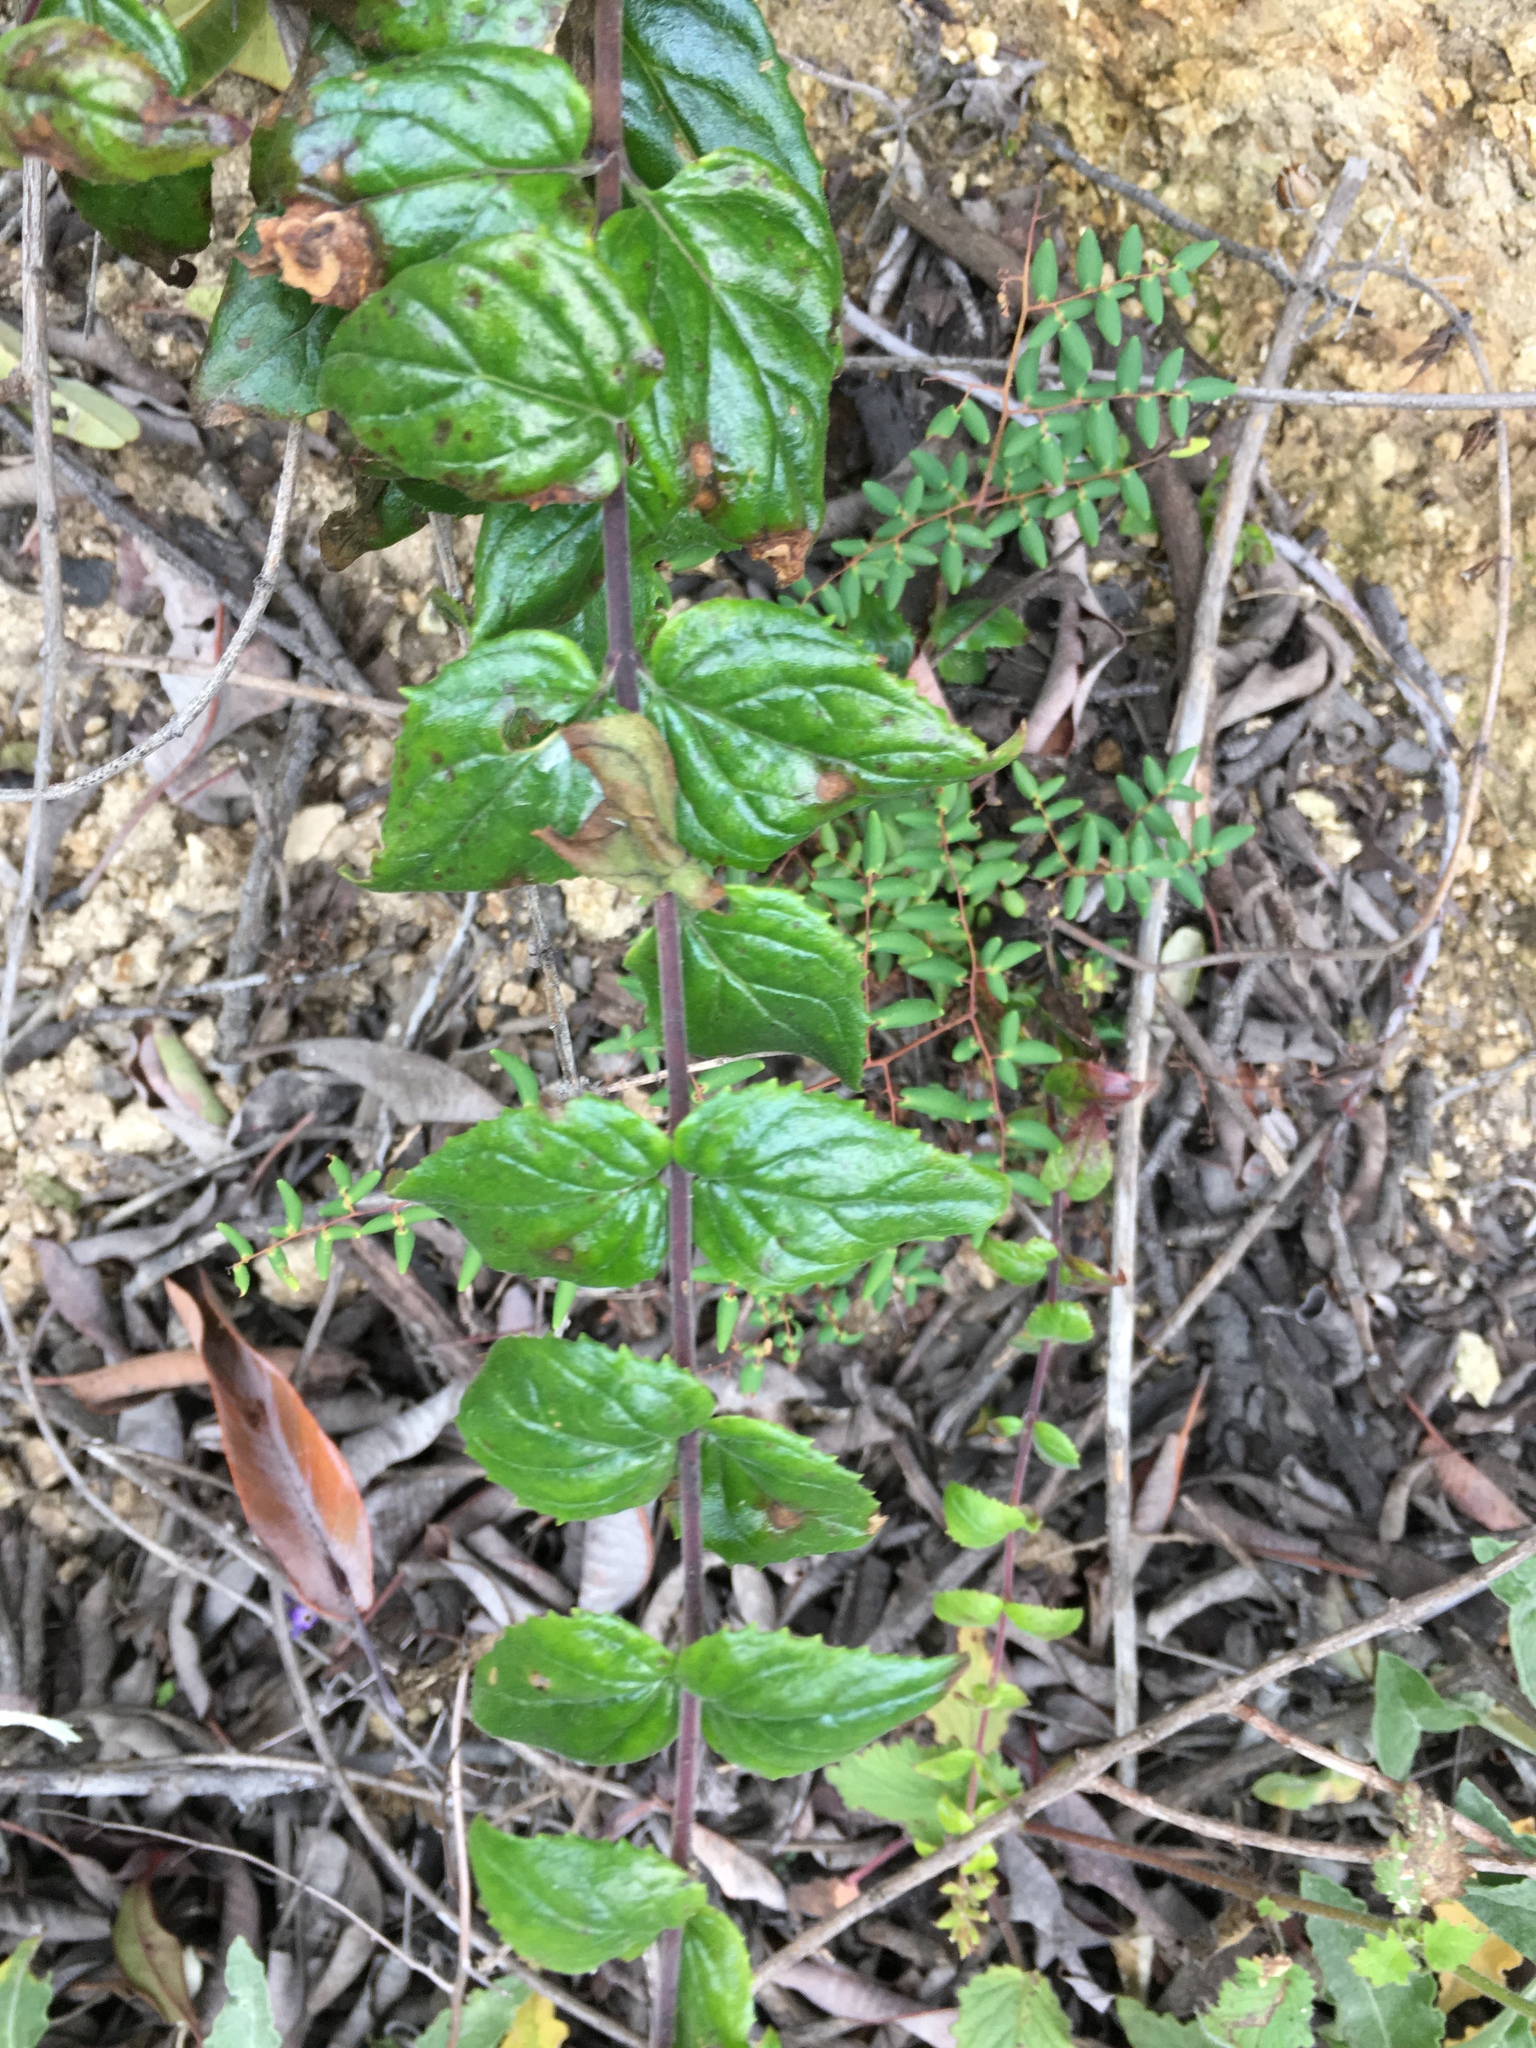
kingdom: Plantae
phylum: Tracheophyta
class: Magnoliopsida
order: Lamiales
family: Plantaginaceae
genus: Keckiella
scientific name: Keckiella cordifolia
